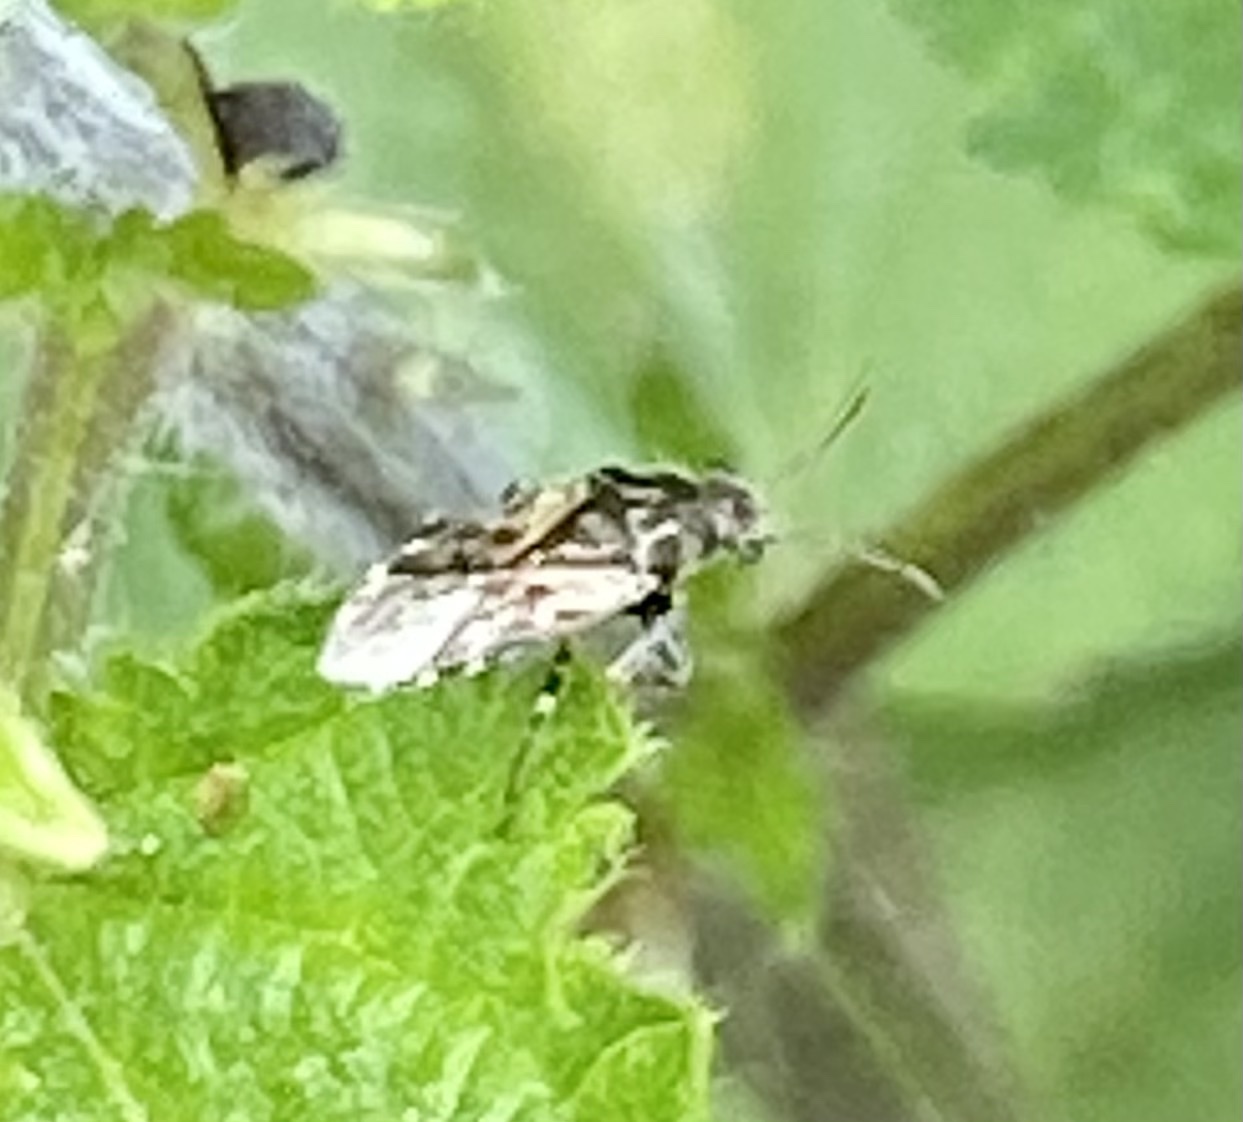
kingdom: Animalia
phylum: Arthropoda
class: Insecta
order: Hemiptera
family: Heterogastridae
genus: Heterogaster
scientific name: Heterogaster urticae
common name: Seed bug
